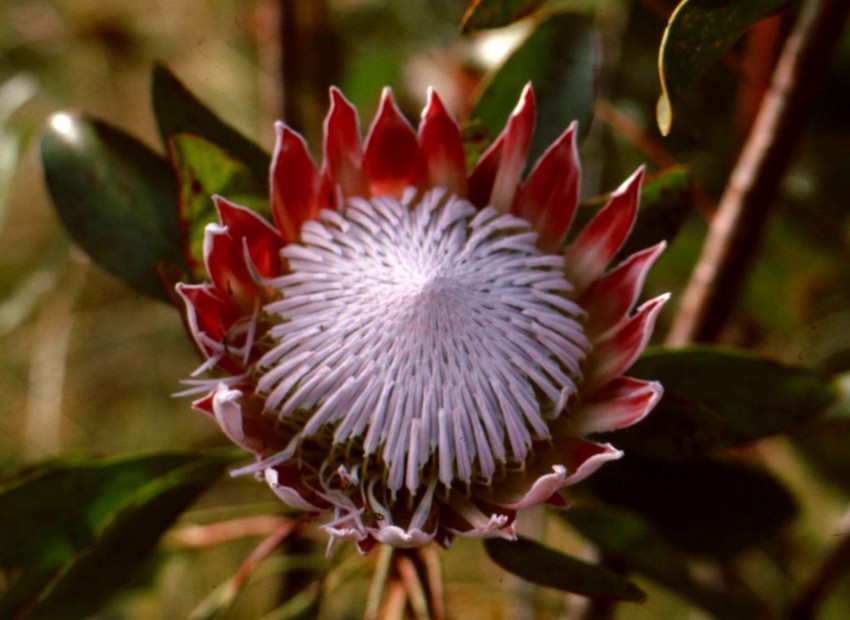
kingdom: Plantae
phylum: Tracheophyta
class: Magnoliopsida
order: Proteales
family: Proteaceae
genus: Protea
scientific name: Protea cynaroides
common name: King protea
